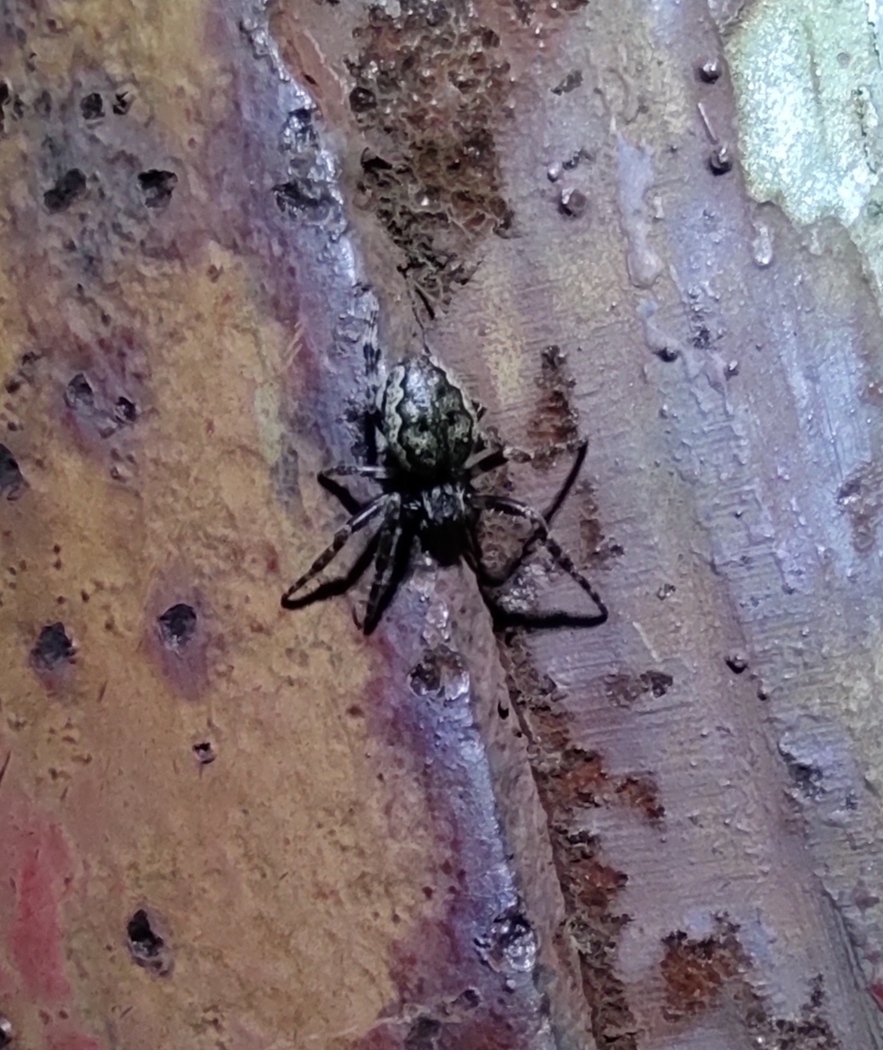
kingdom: Animalia
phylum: Arthropoda
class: Arachnida
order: Araneae
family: Araneidae
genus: Larinioides
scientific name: Larinioides sclopetarius
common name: Bridge orbweaver
